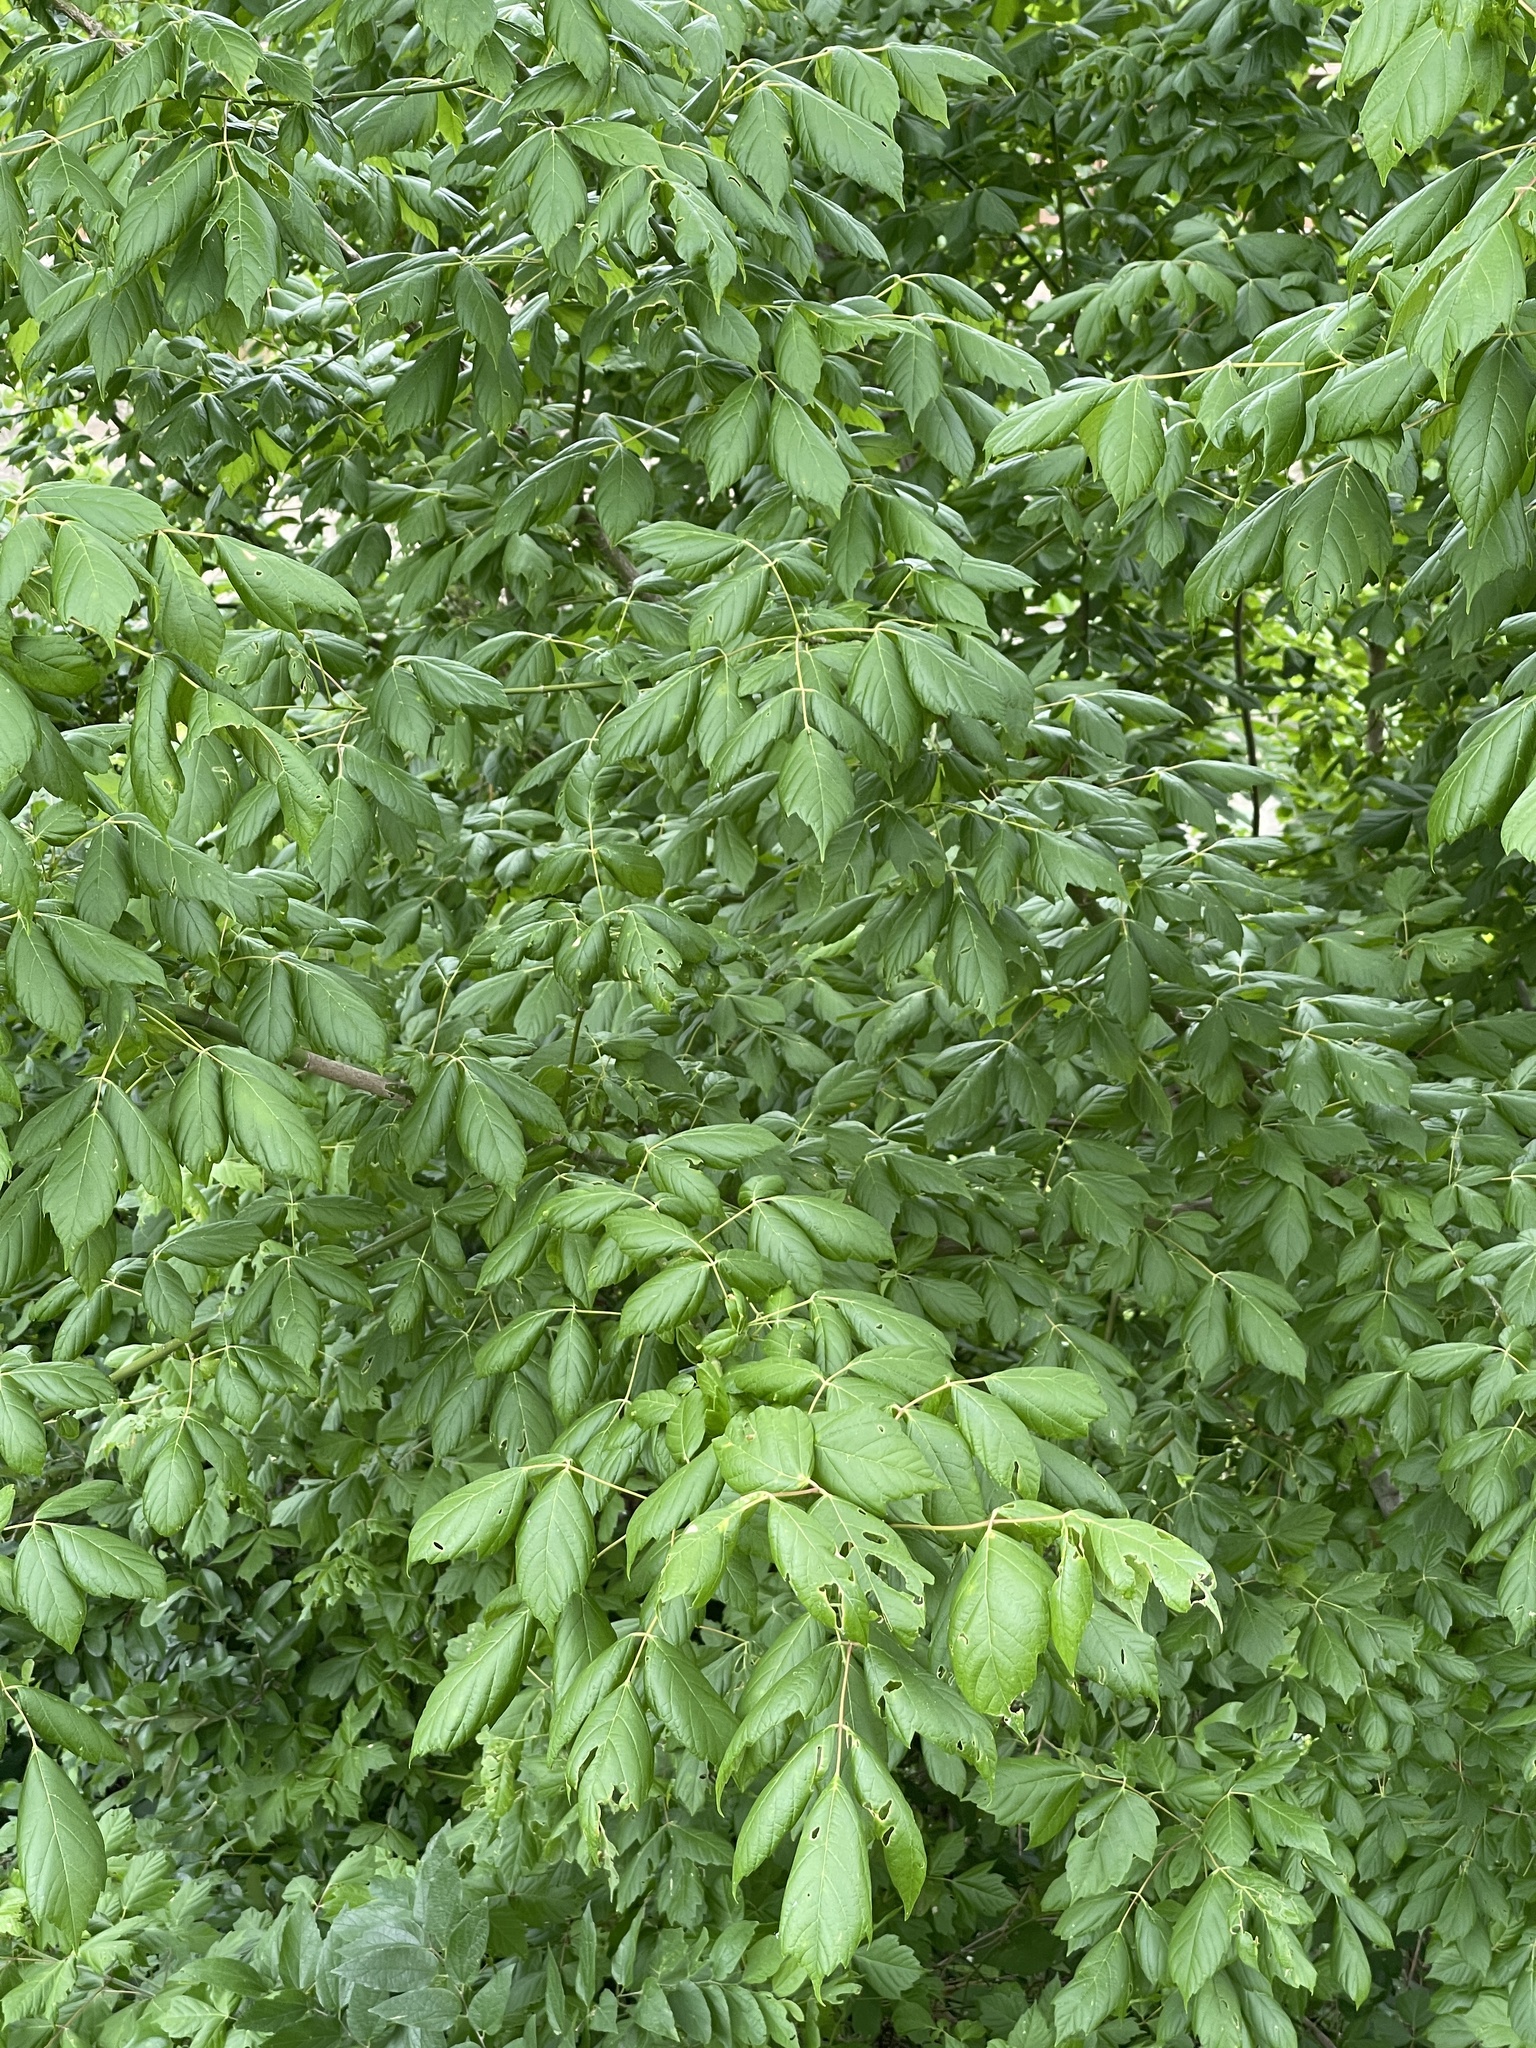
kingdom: Plantae
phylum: Tracheophyta
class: Magnoliopsida
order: Sapindales
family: Sapindaceae
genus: Acer
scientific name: Acer negundo
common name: Ashleaf maple
